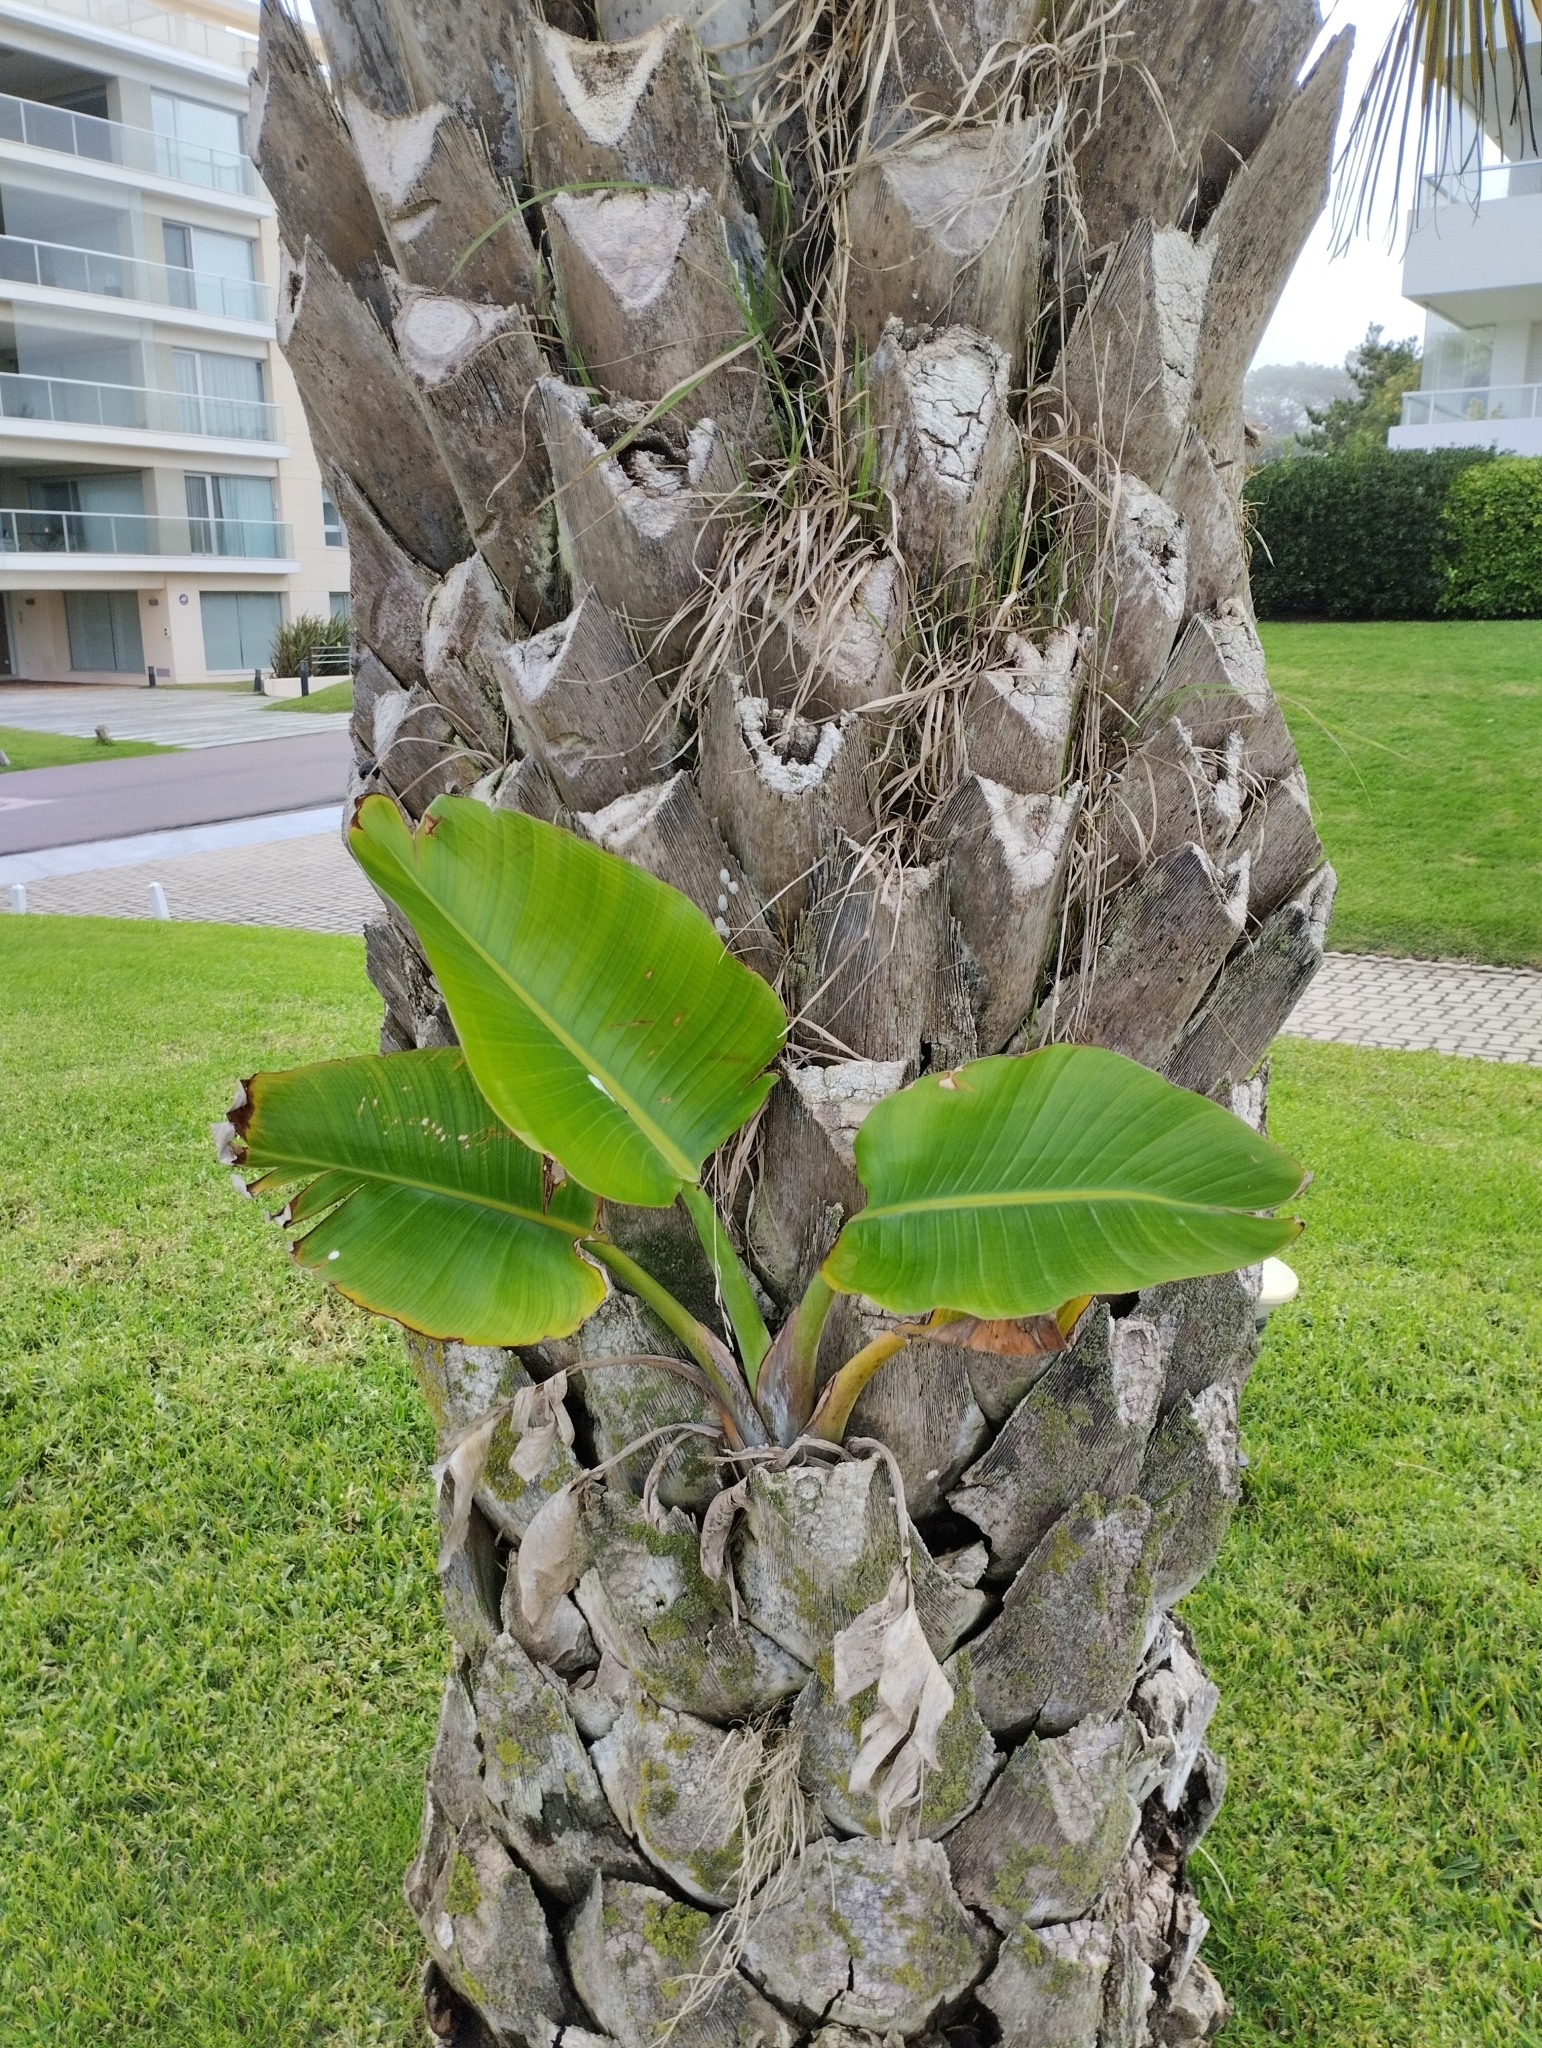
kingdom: Plantae
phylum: Tracheophyta
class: Liliopsida
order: Zingiberales
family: Strelitziaceae
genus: Strelitzia
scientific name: Strelitzia nicolai
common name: Bird-of-paradise tree
